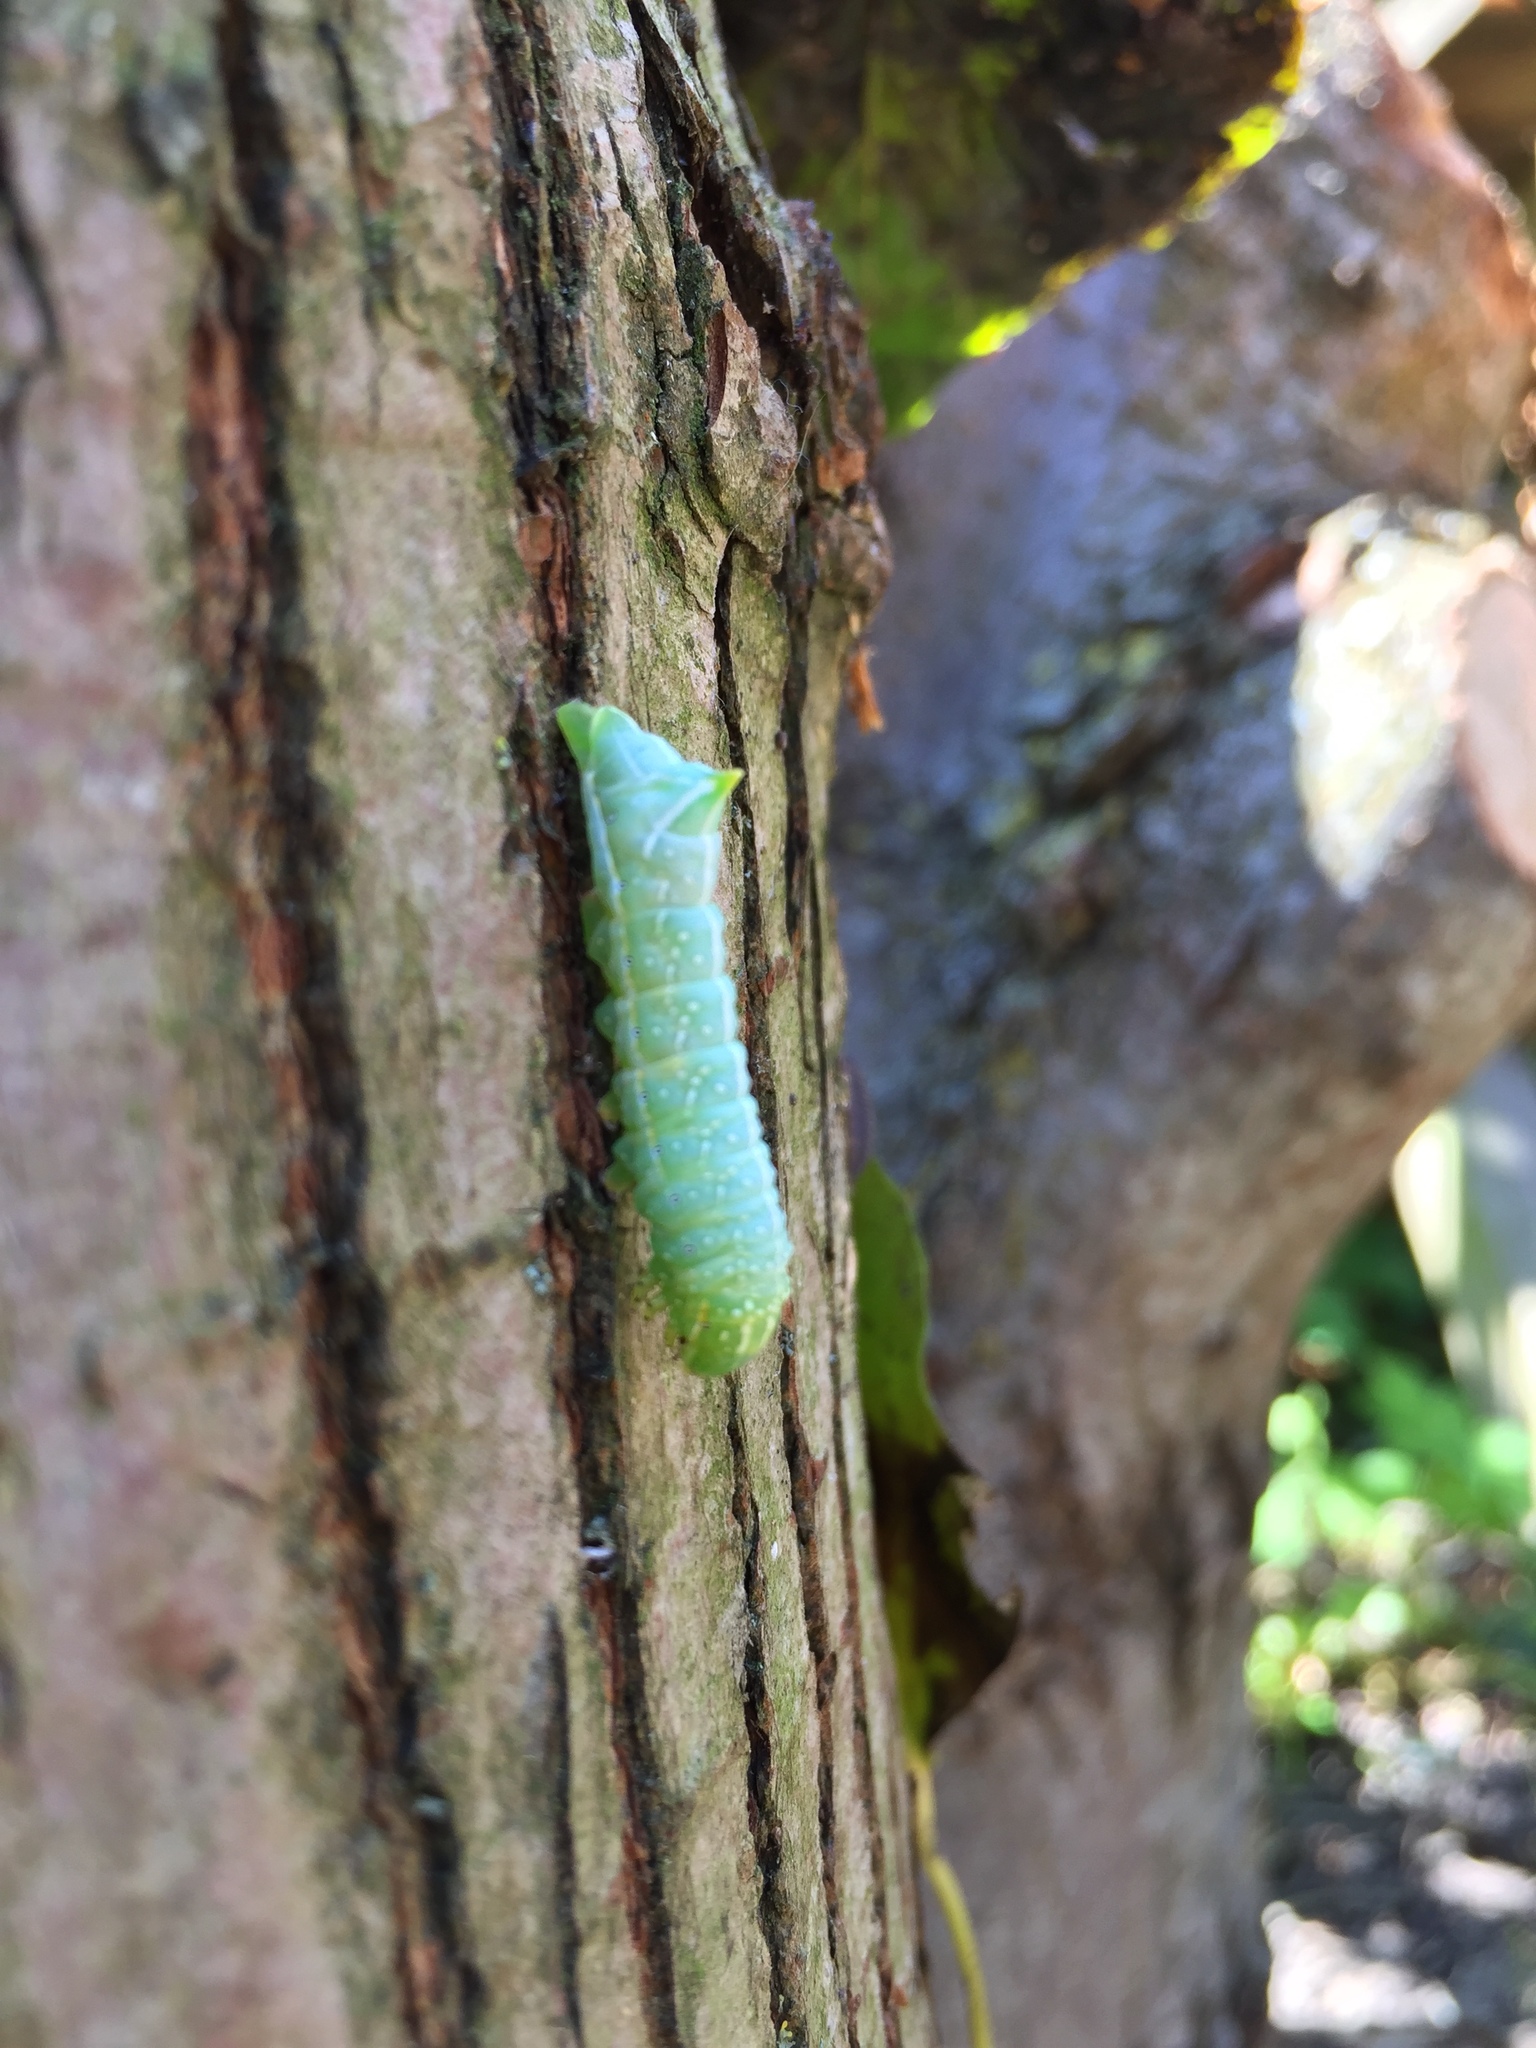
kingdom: Animalia
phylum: Arthropoda
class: Insecta
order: Lepidoptera
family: Noctuidae
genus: Amphipyra
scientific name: Amphipyra pyramidea
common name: Copper underwing
